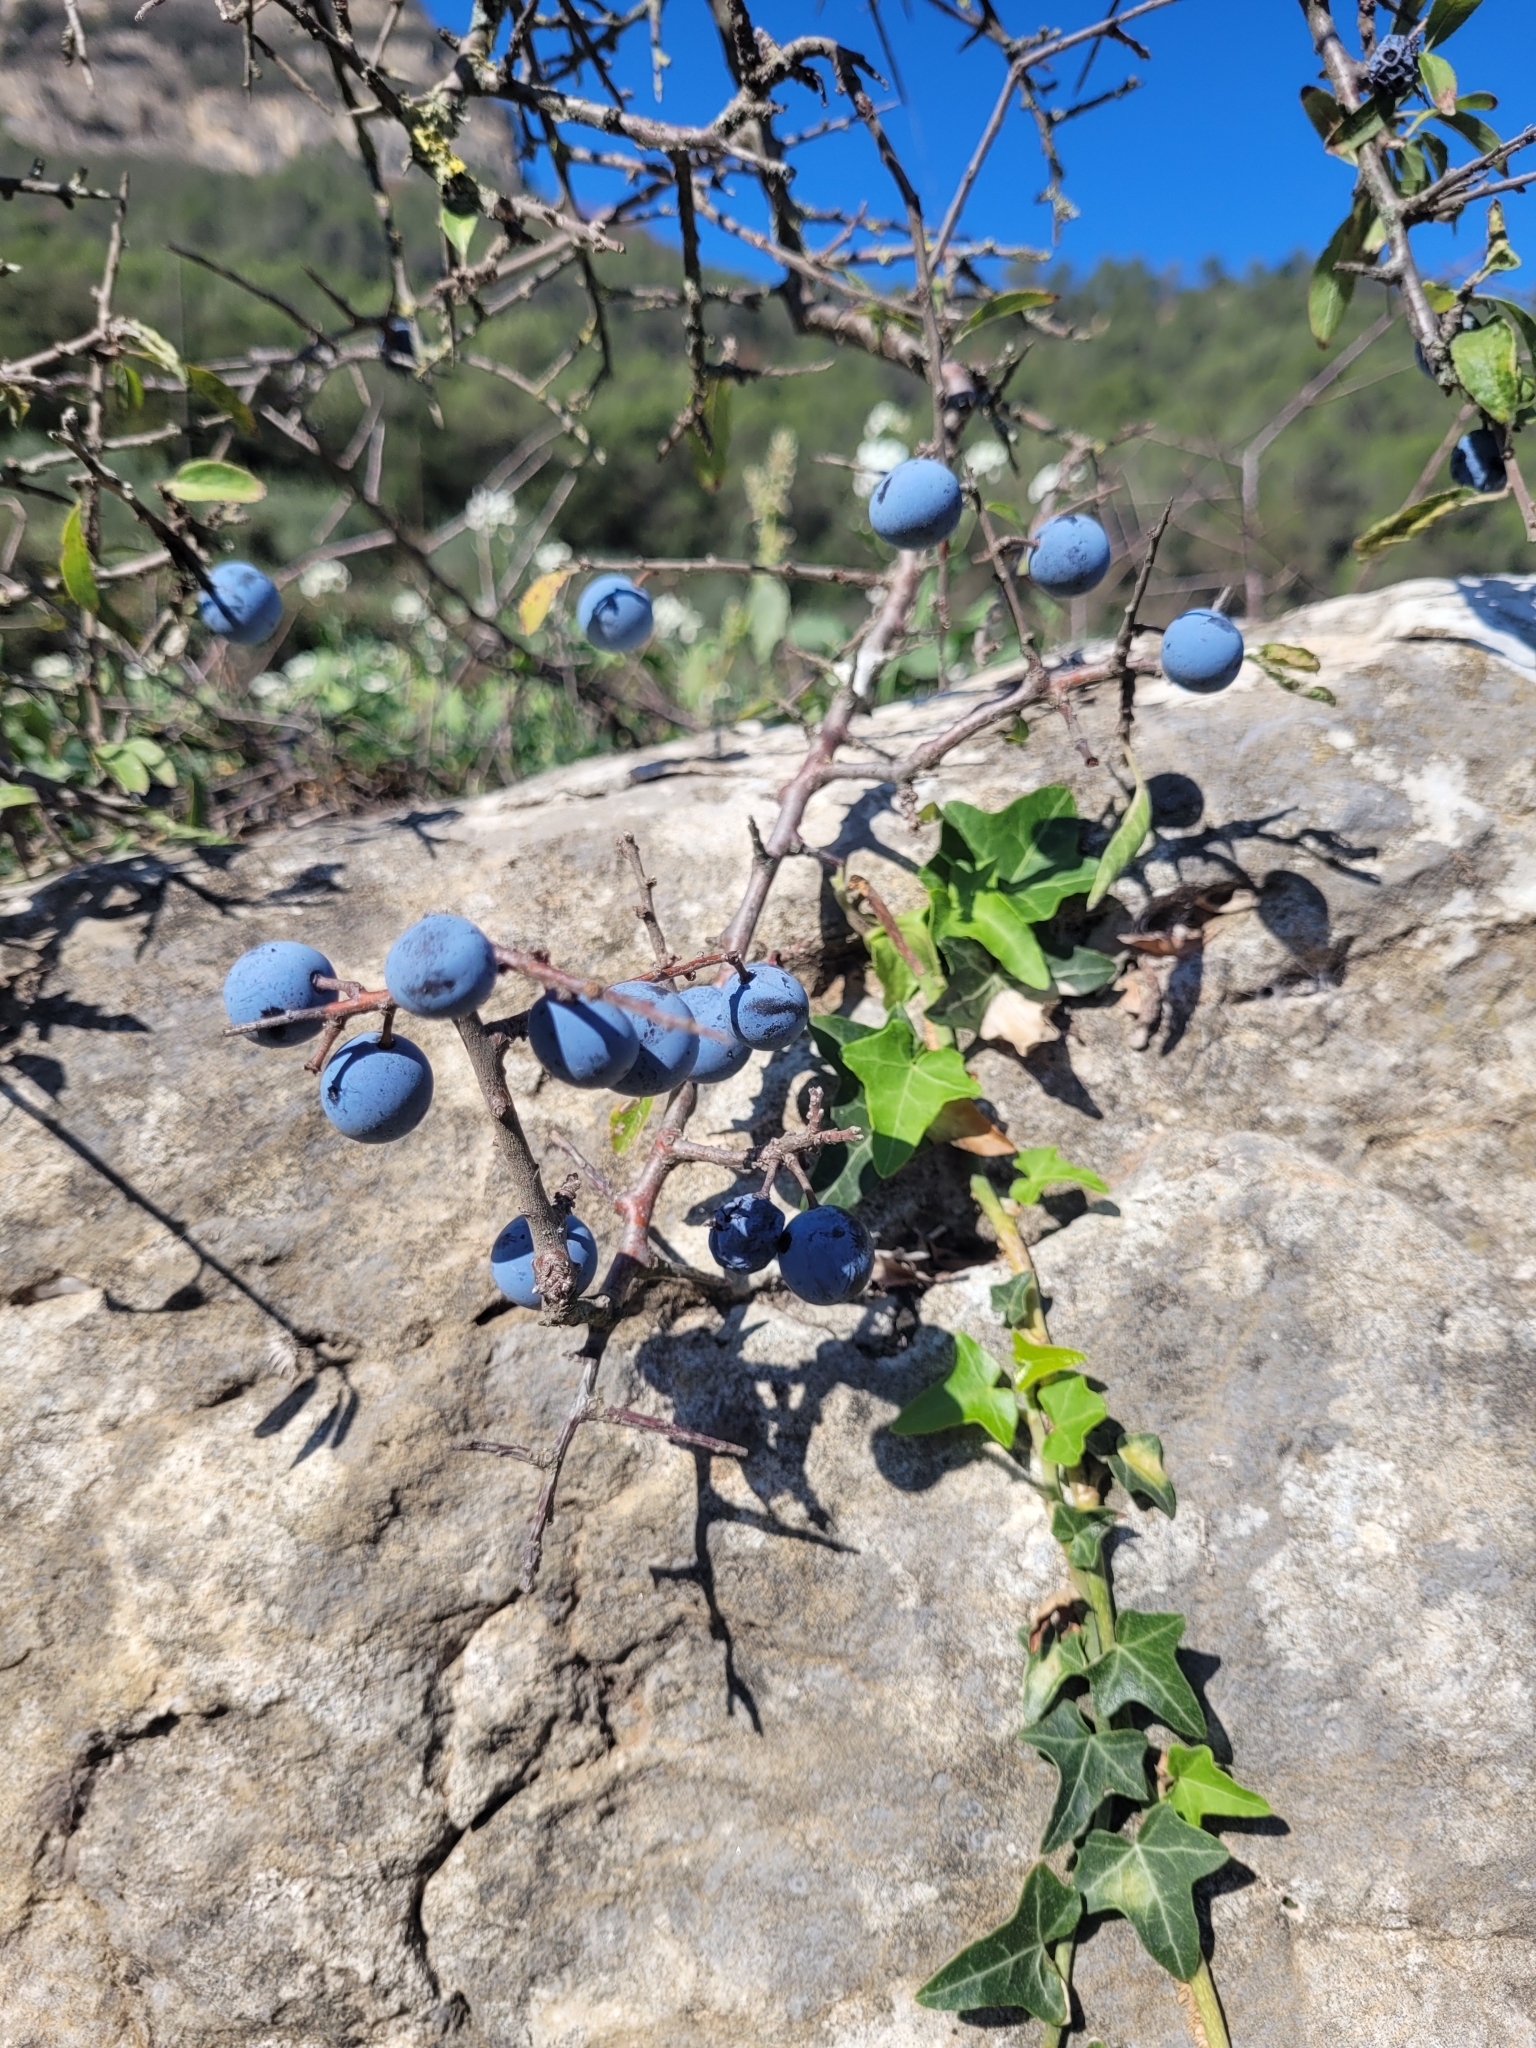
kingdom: Plantae
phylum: Tracheophyta
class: Magnoliopsida
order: Rosales
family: Rosaceae
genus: Prunus
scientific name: Prunus spinosa
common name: Blackthorn
